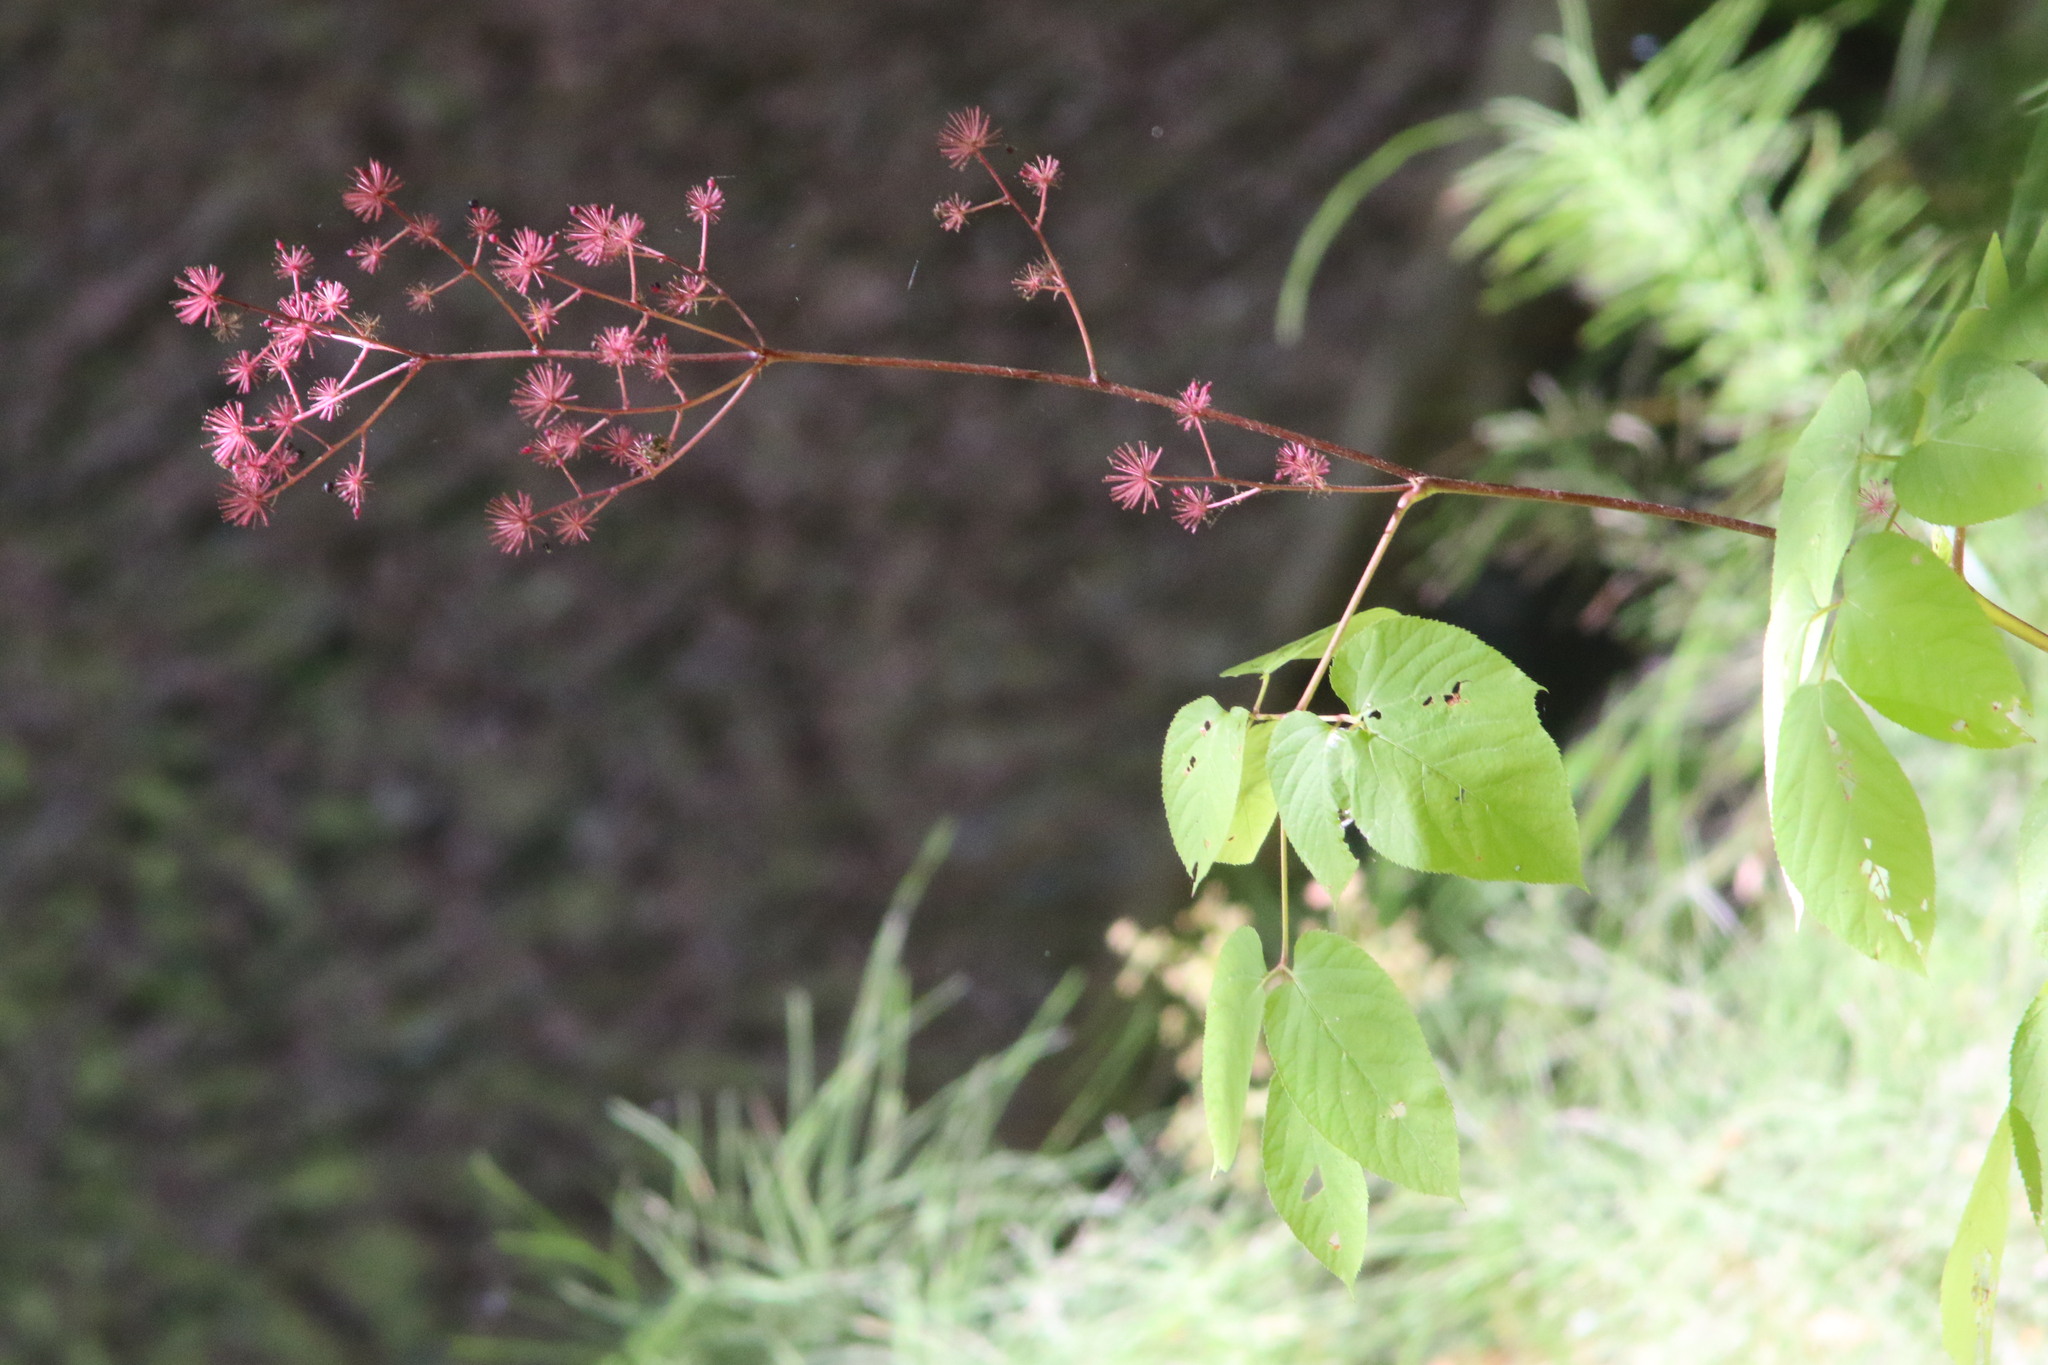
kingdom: Plantae
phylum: Tracheophyta
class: Magnoliopsida
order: Apiales
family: Araliaceae
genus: Aralia
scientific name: Aralia californica
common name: California-ginseng
